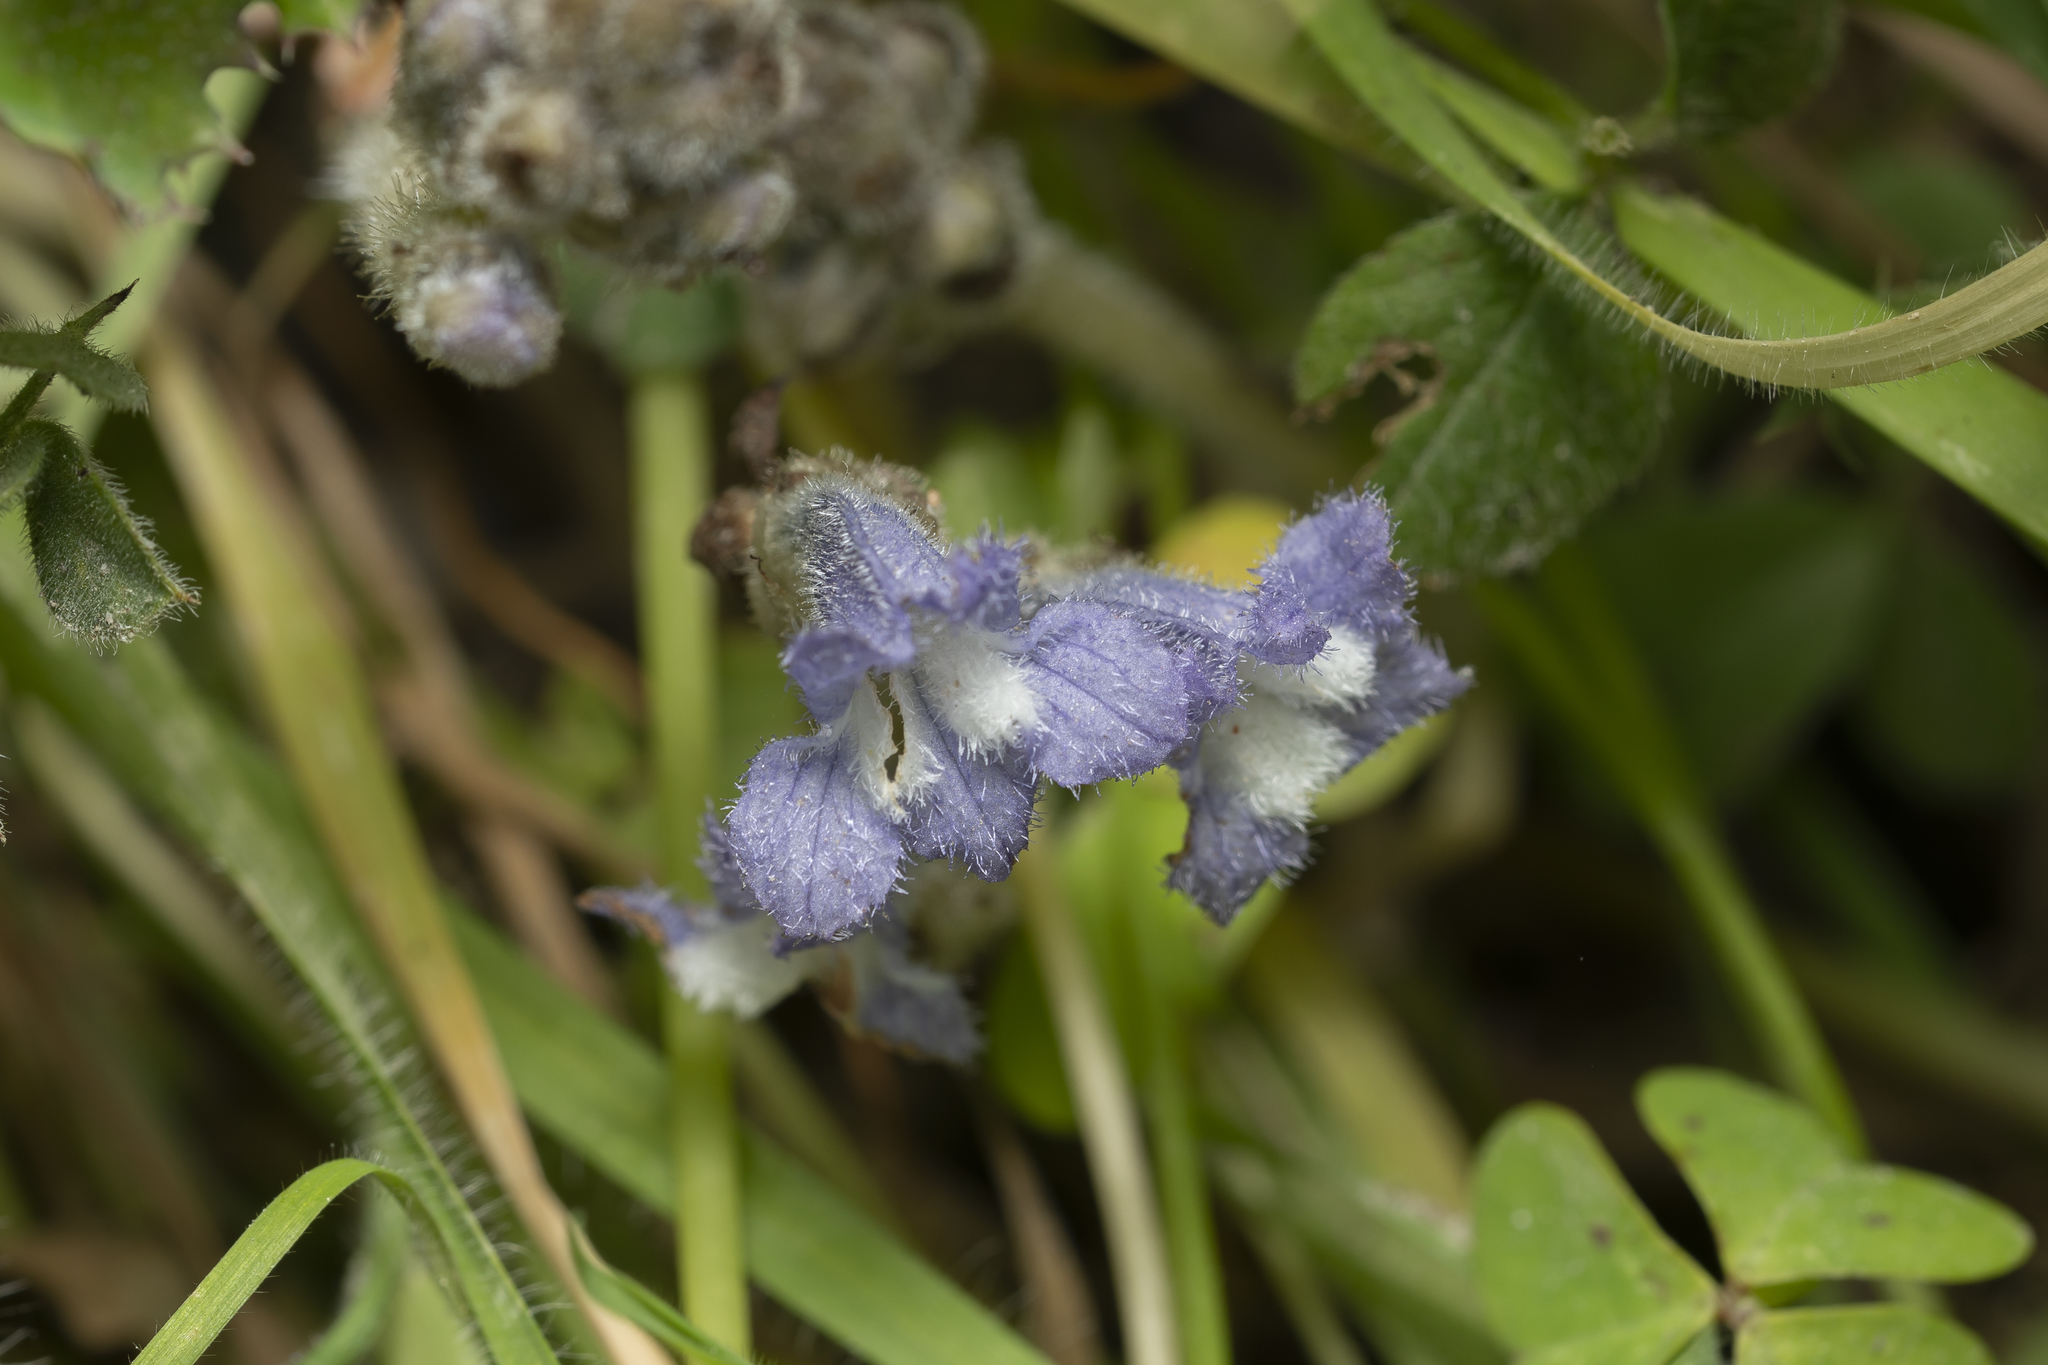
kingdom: Plantae
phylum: Tracheophyta
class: Magnoliopsida
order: Lamiales
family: Orobanchaceae
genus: Phelipanche
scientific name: Phelipanche mutelii
